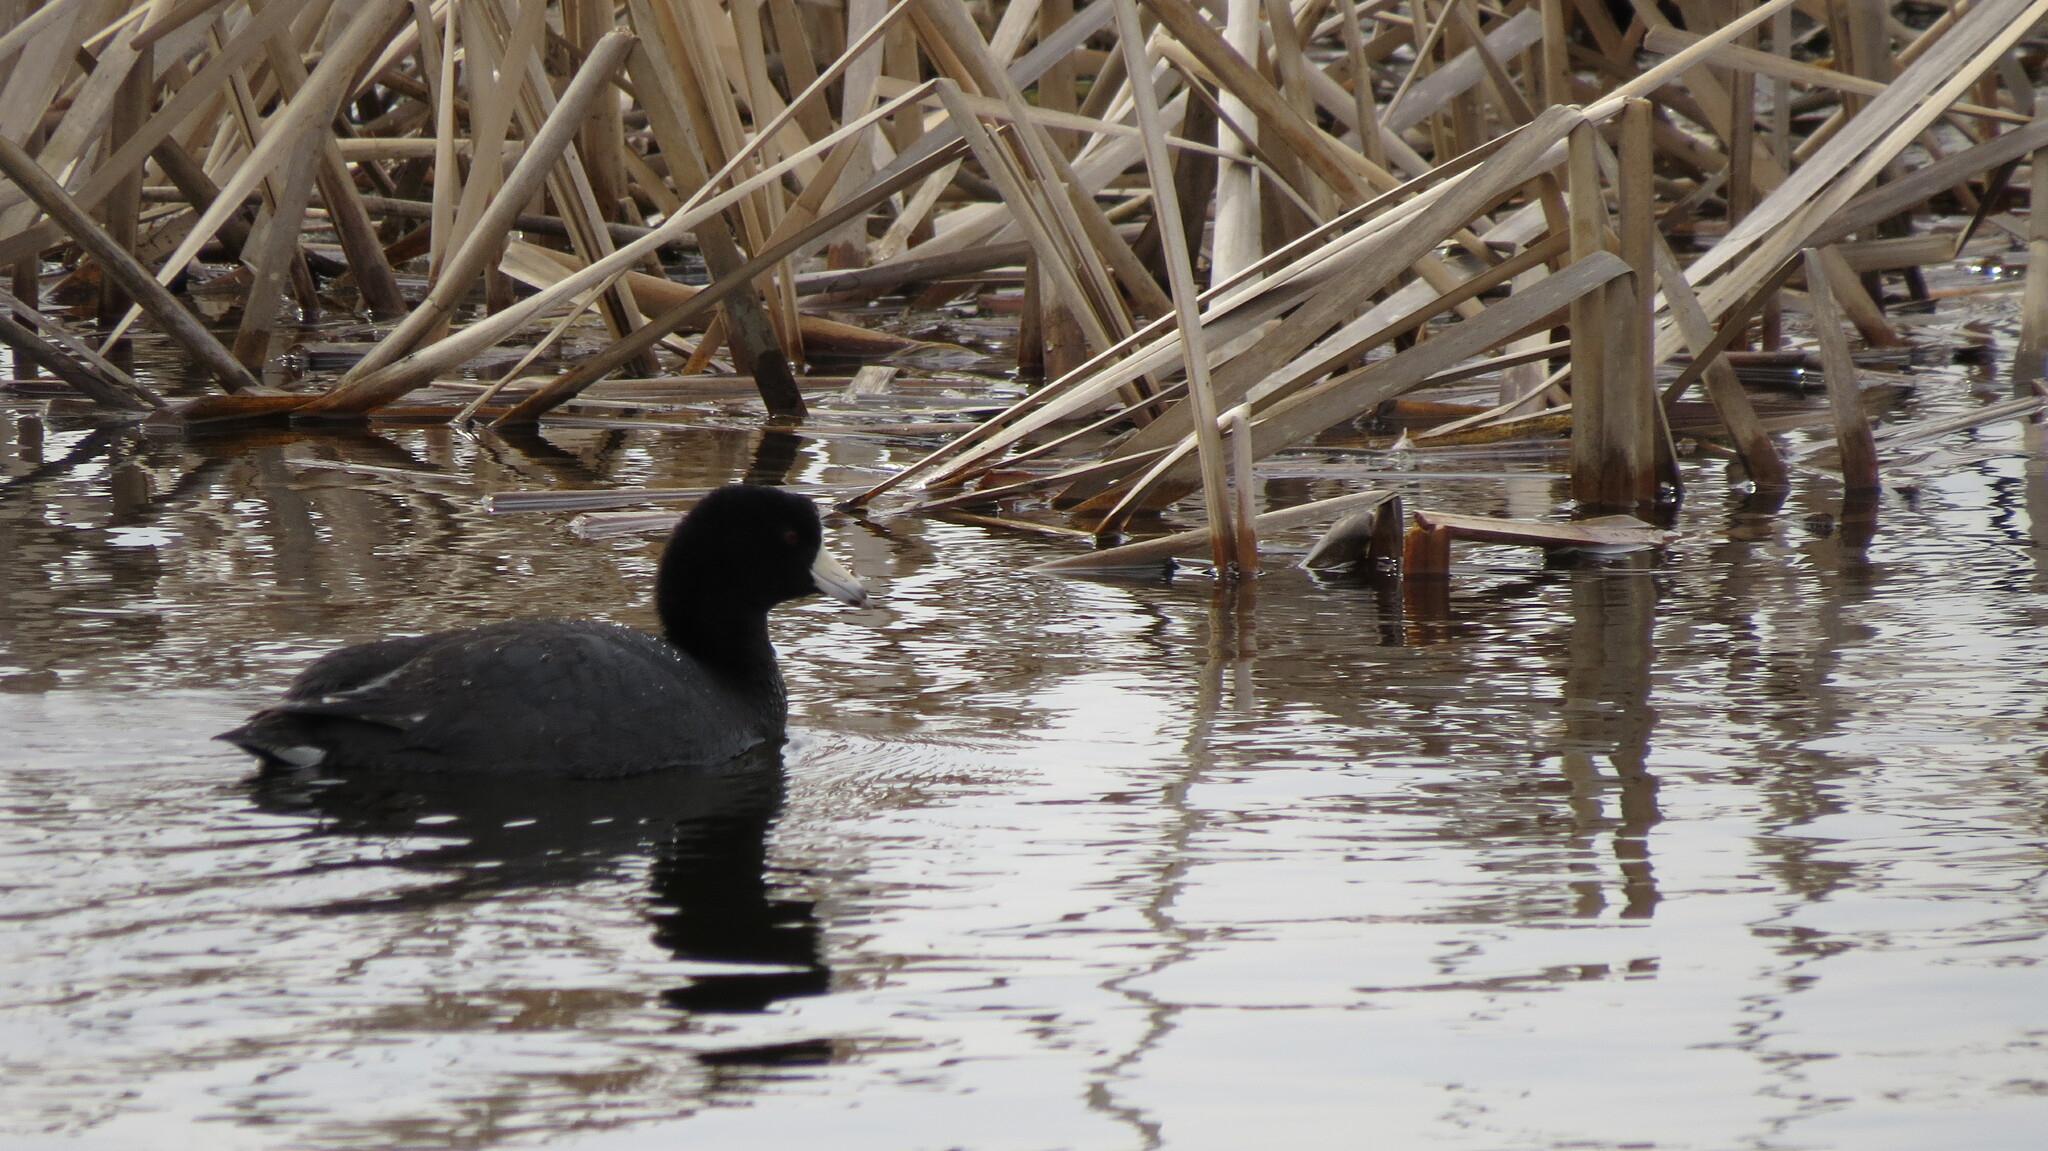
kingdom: Animalia
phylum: Chordata
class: Aves
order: Gruiformes
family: Rallidae
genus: Fulica
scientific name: Fulica americana
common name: American coot
